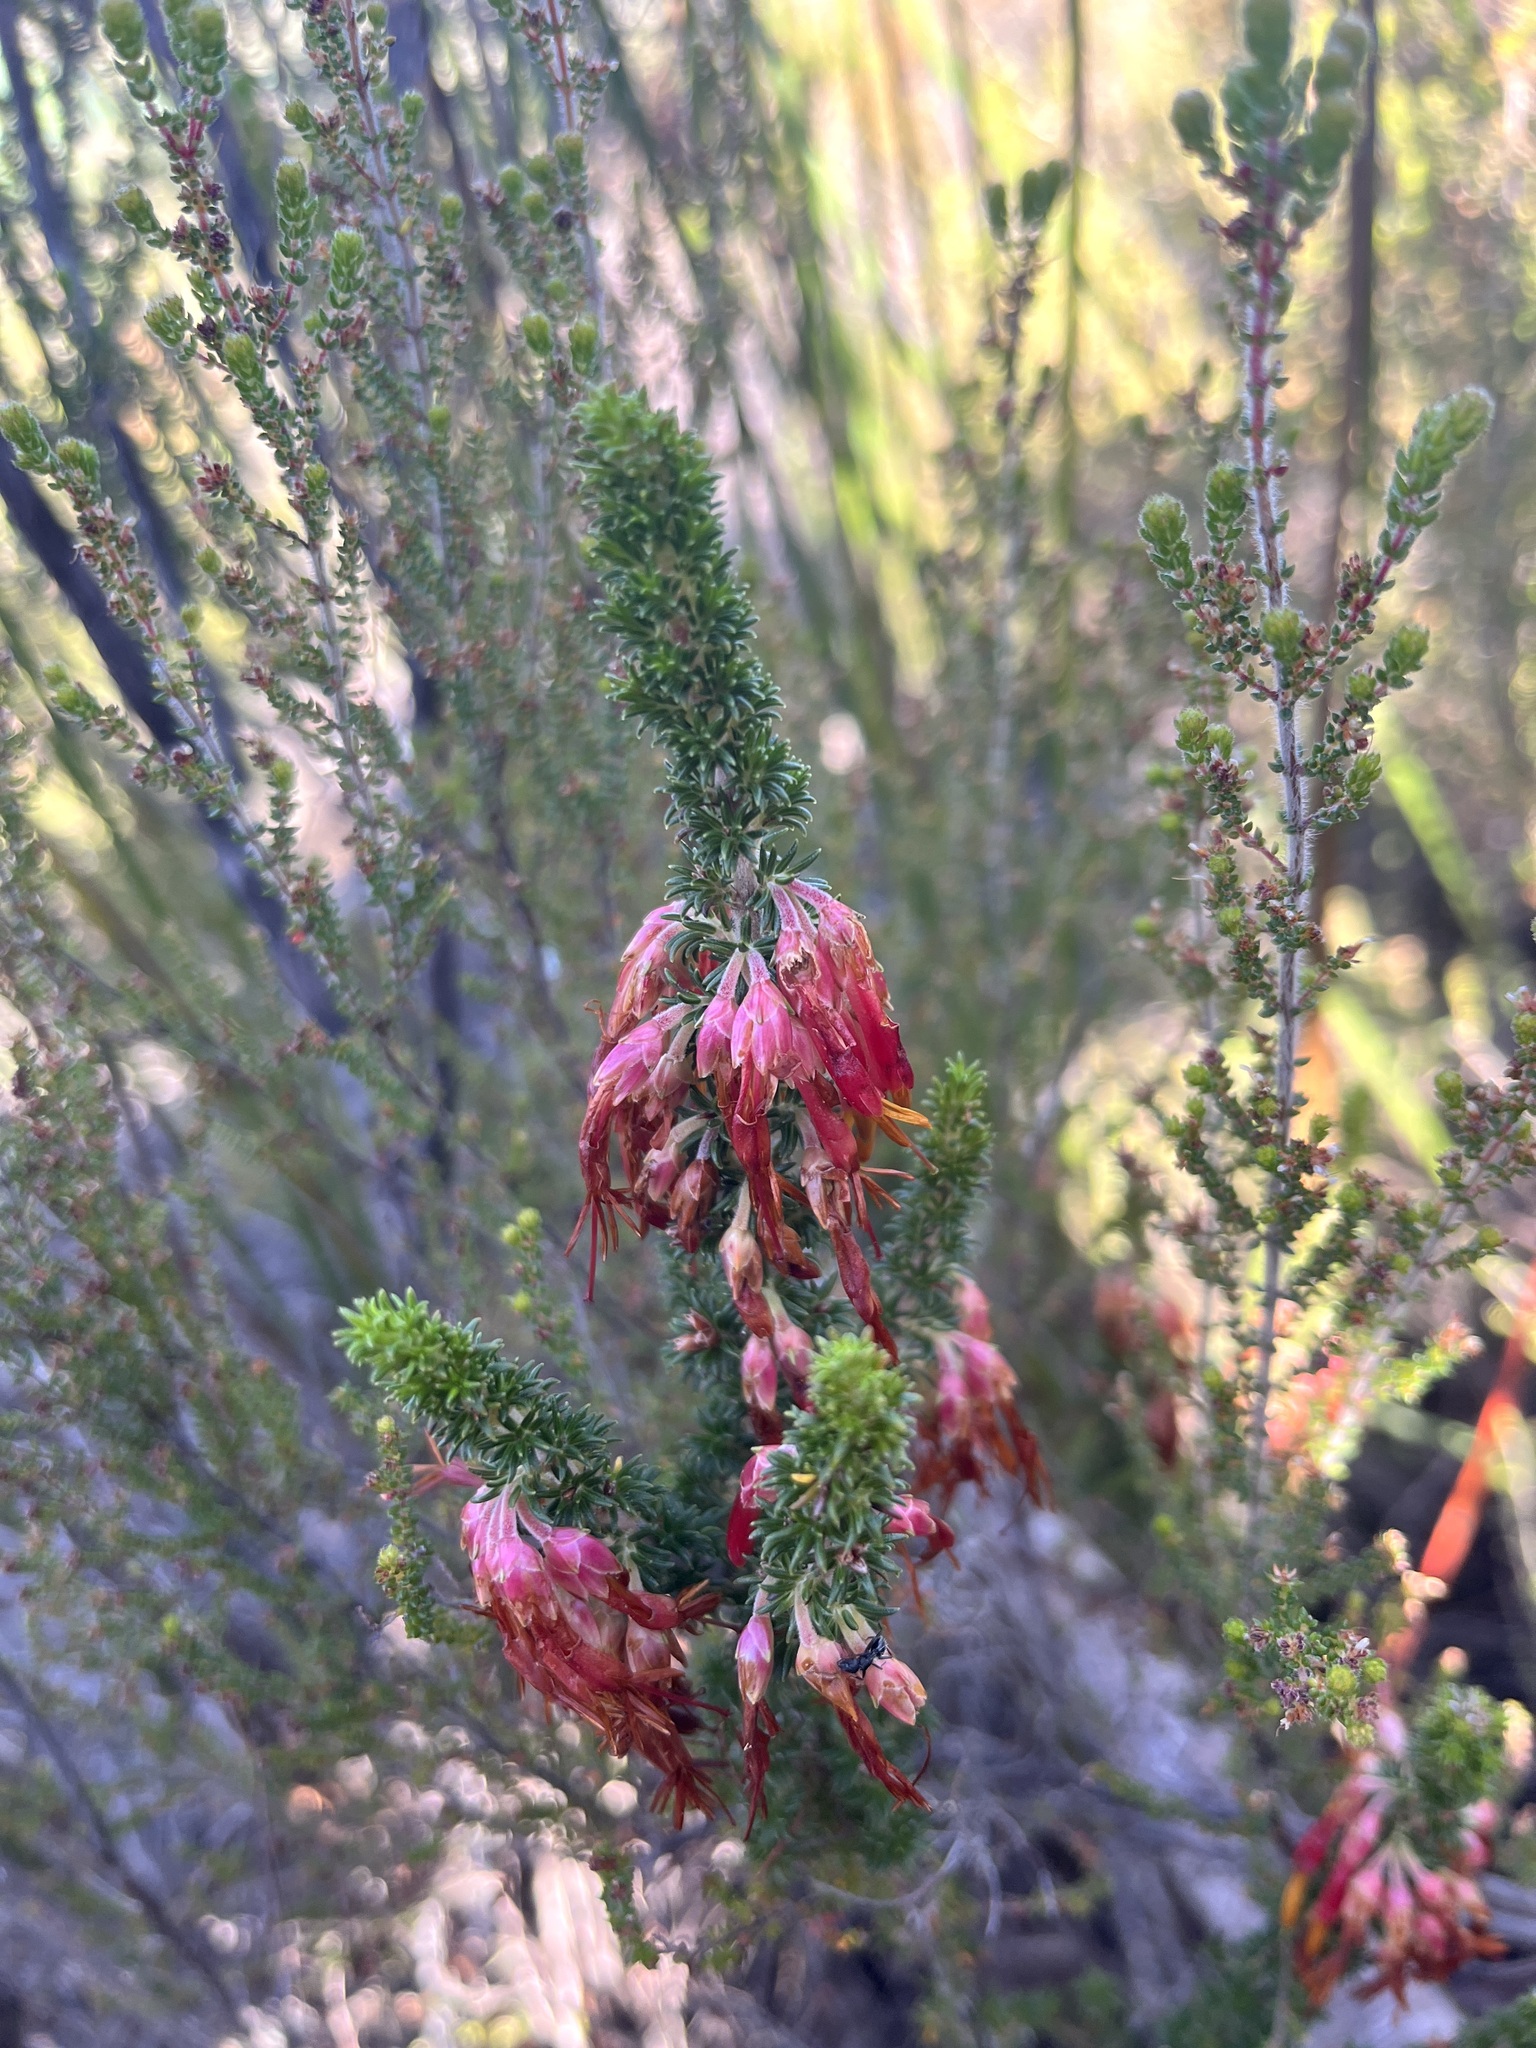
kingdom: Plantae
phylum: Tracheophyta
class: Magnoliopsida
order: Ericales
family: Ericaceae
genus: Erica
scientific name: Erica coccinea
